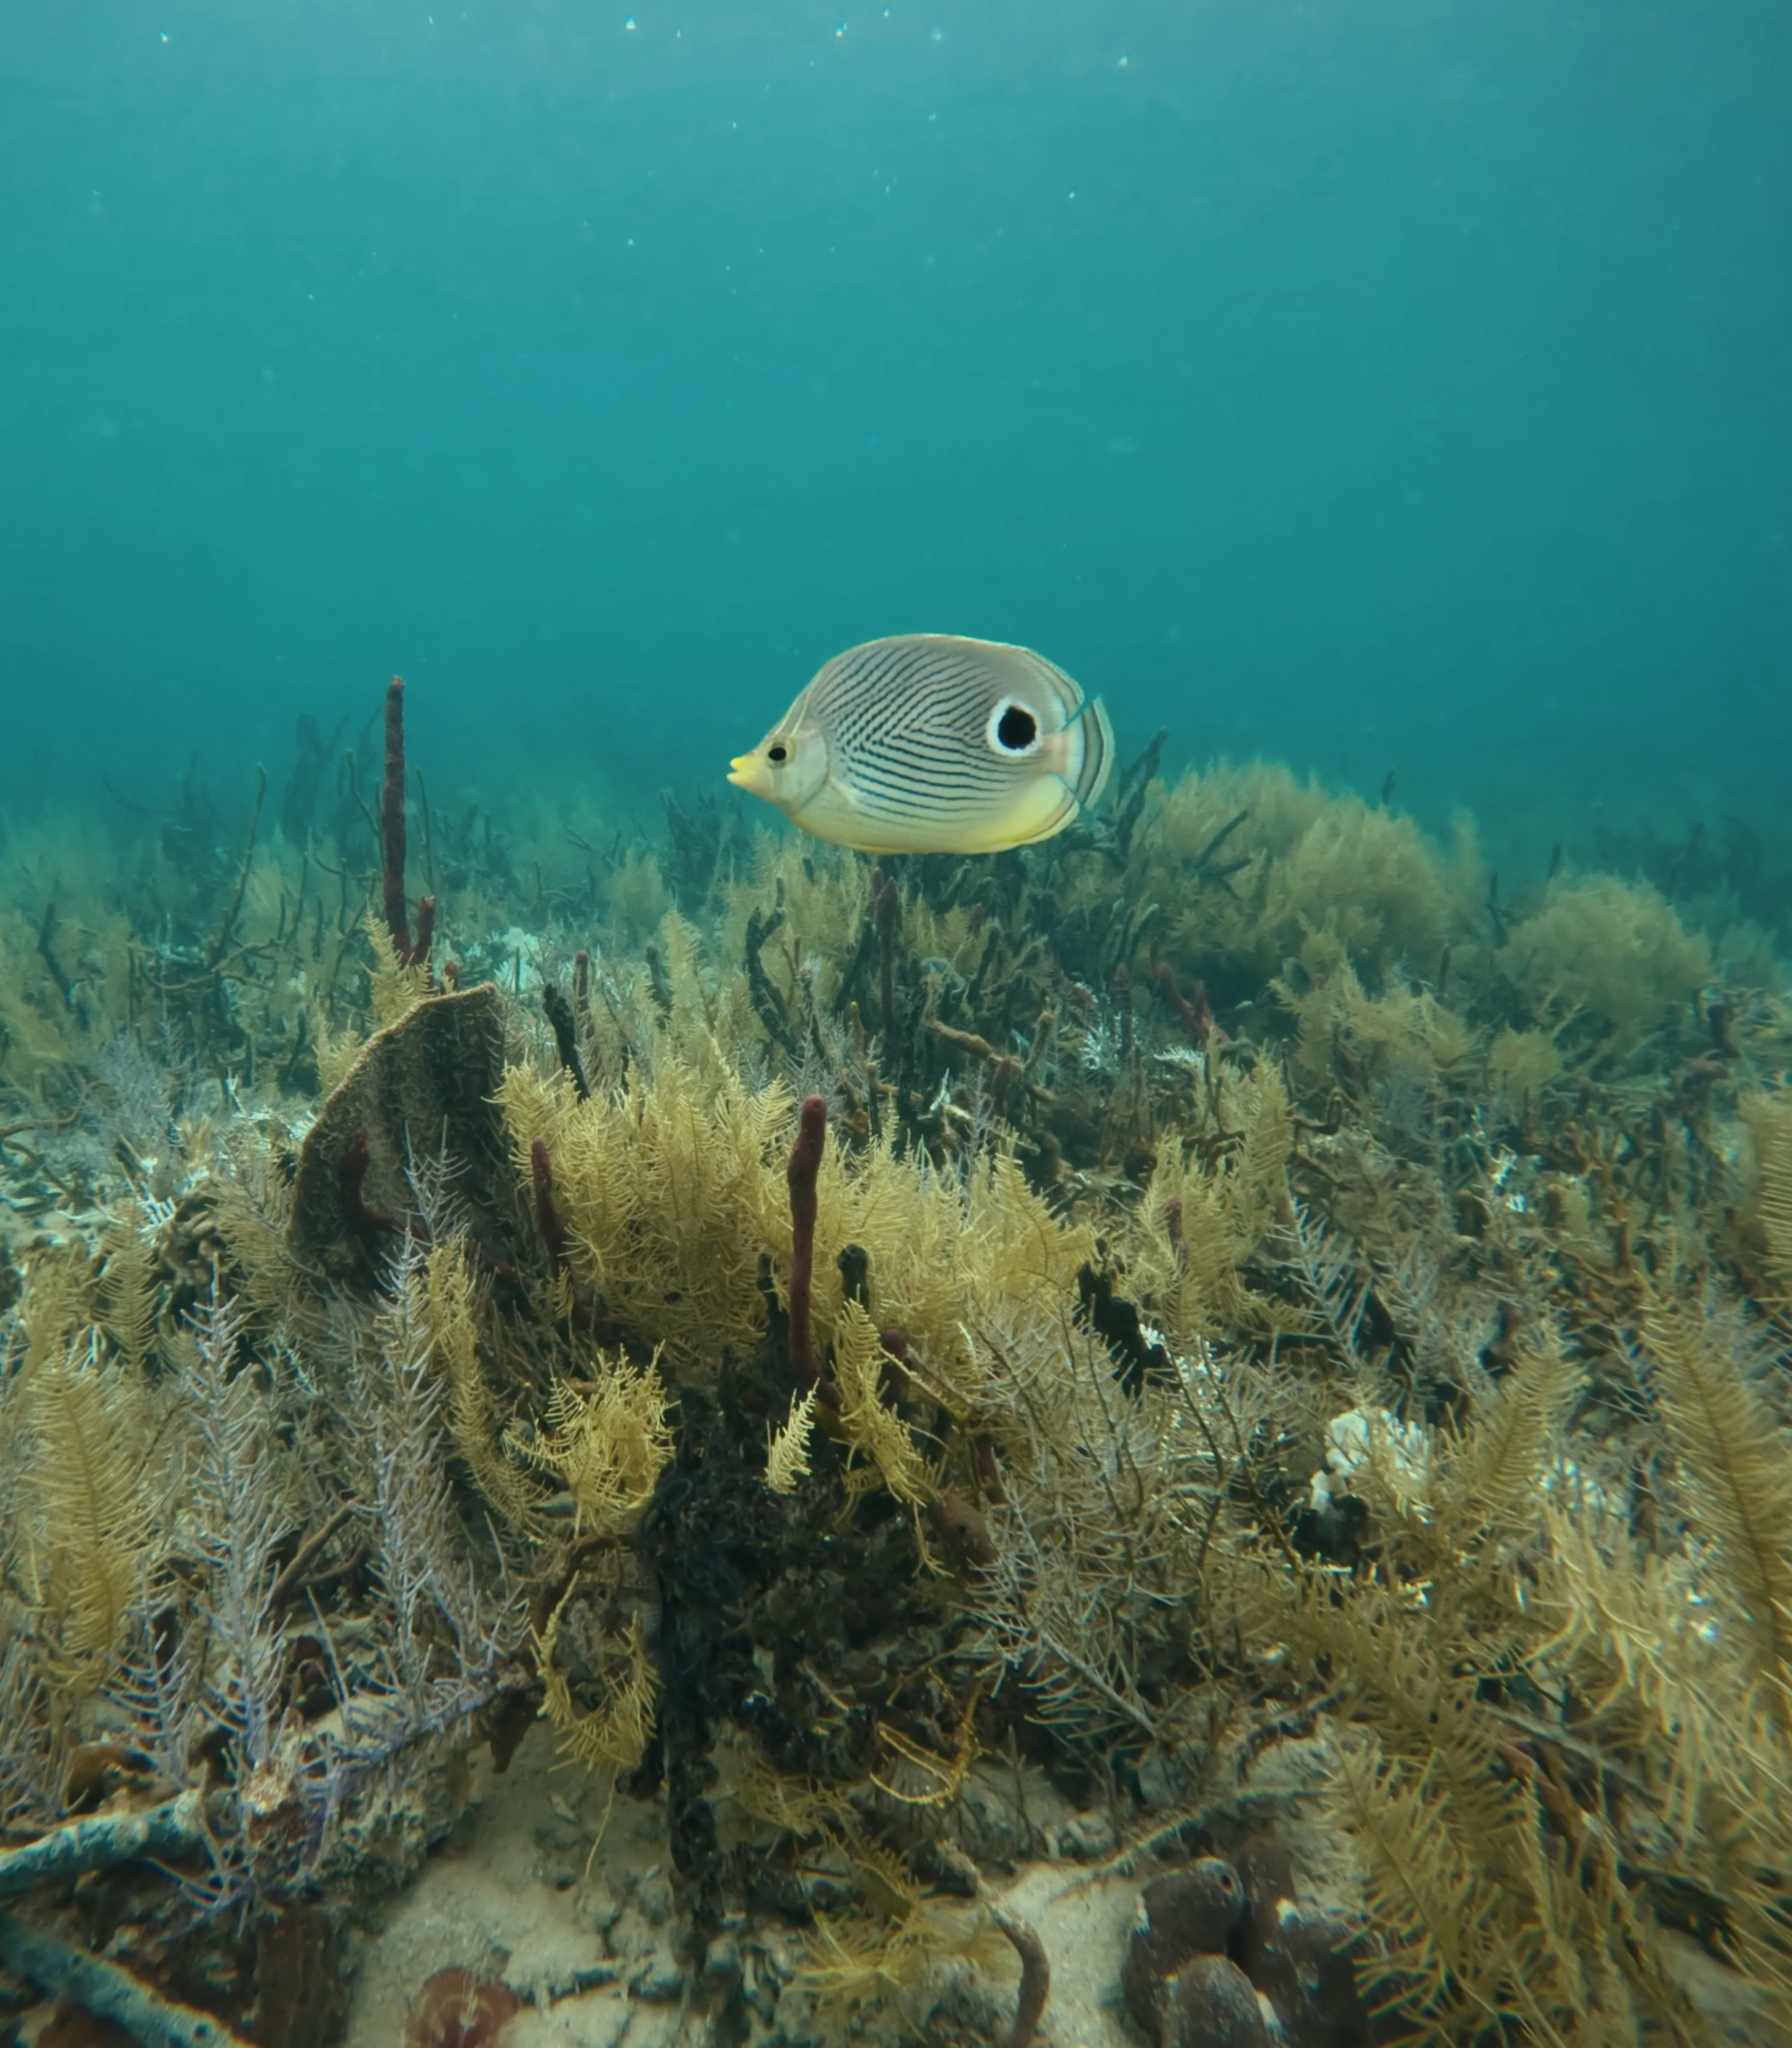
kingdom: Animalia
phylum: Chordata
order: Perciformes
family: Chaetodontidae
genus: Chaetodon
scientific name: Chaetodon capistratus
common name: Kete
